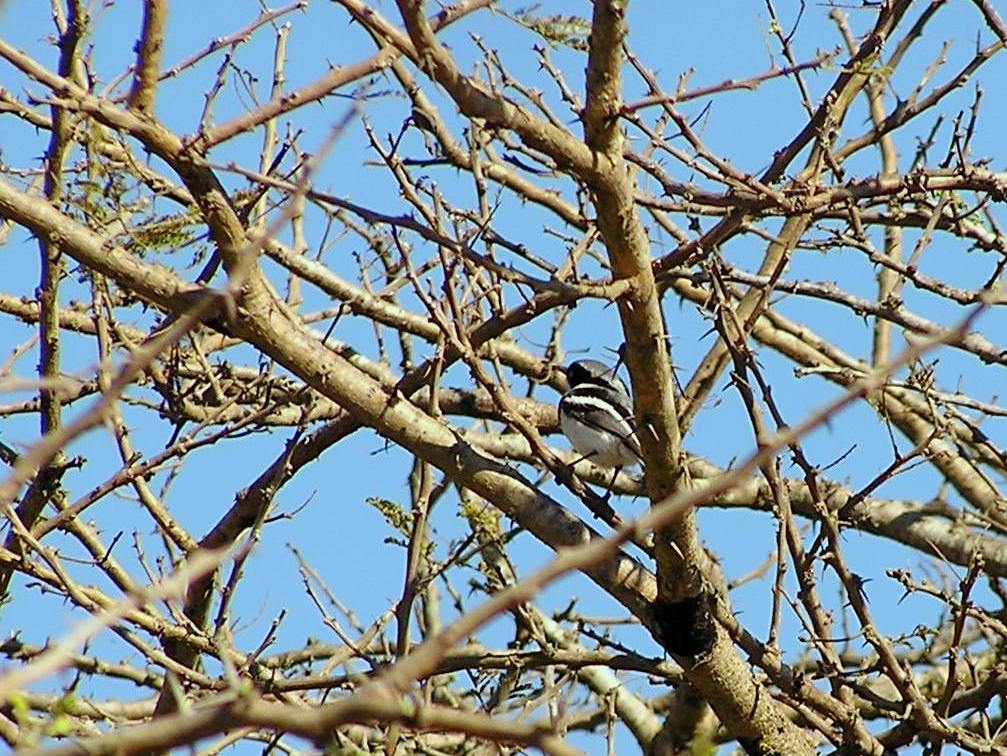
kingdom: Animalia
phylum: Chordata
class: Aves
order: Passeriformes
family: Platysteiridae
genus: Batis
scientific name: Batis molitor
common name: Chinspot batis
